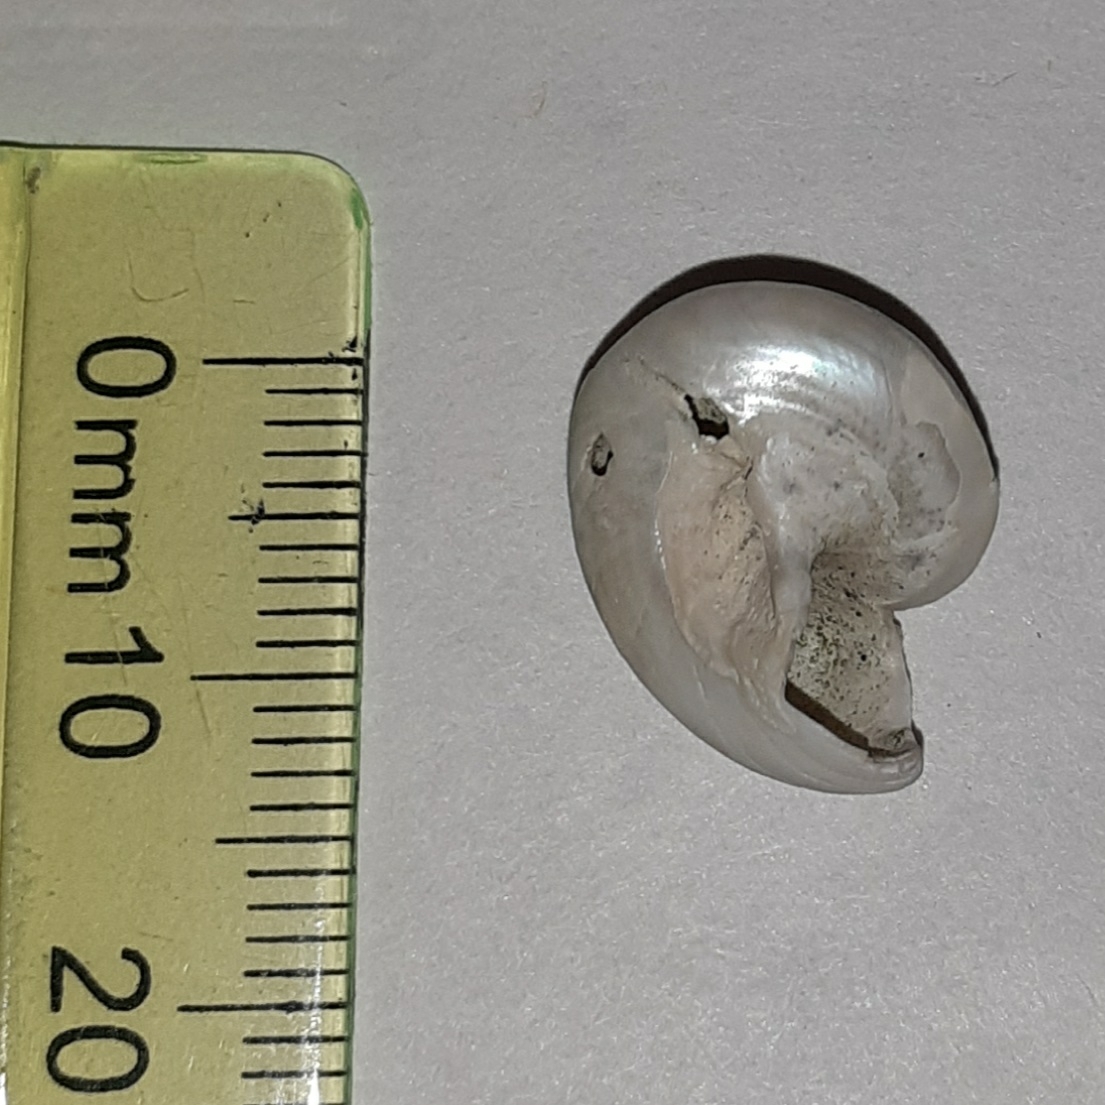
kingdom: Animalia
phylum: Mollusca
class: Gastropoda
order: Trochida
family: Trochidae
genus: Gibbula
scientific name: Gibbula magus
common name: Turban top shell
